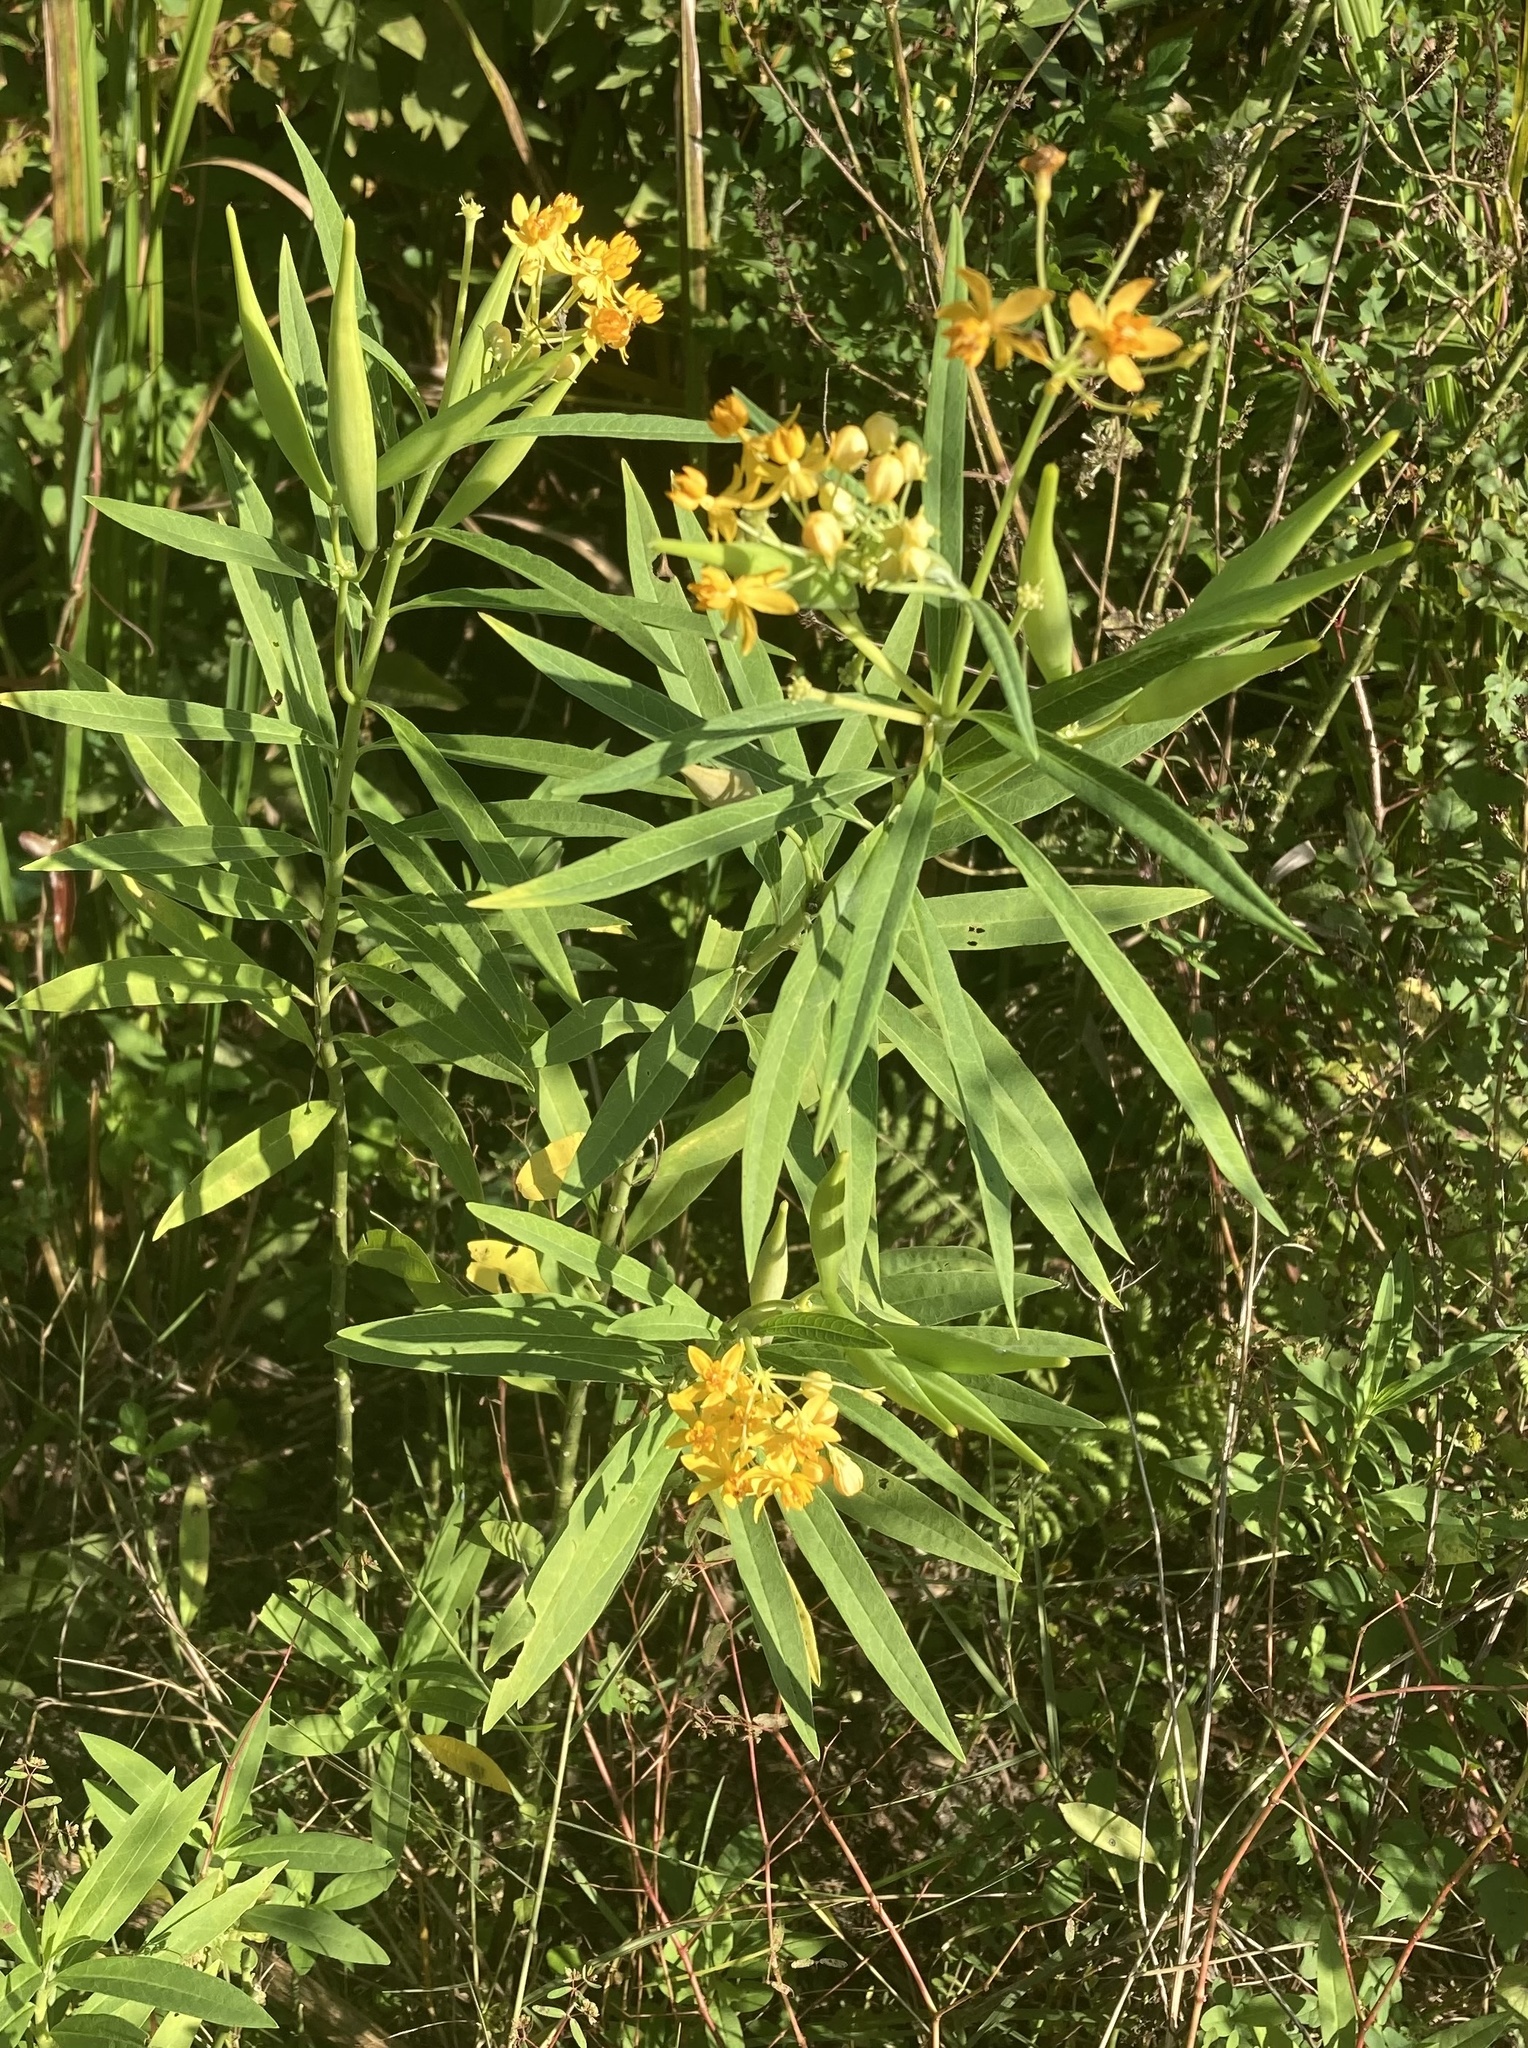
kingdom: Plantae
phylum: Tracheophyta
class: Magnoliopsida
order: Gentianales
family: Apocynaceae
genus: Asclepias
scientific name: Asclepias curassavica
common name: Bloodflower
